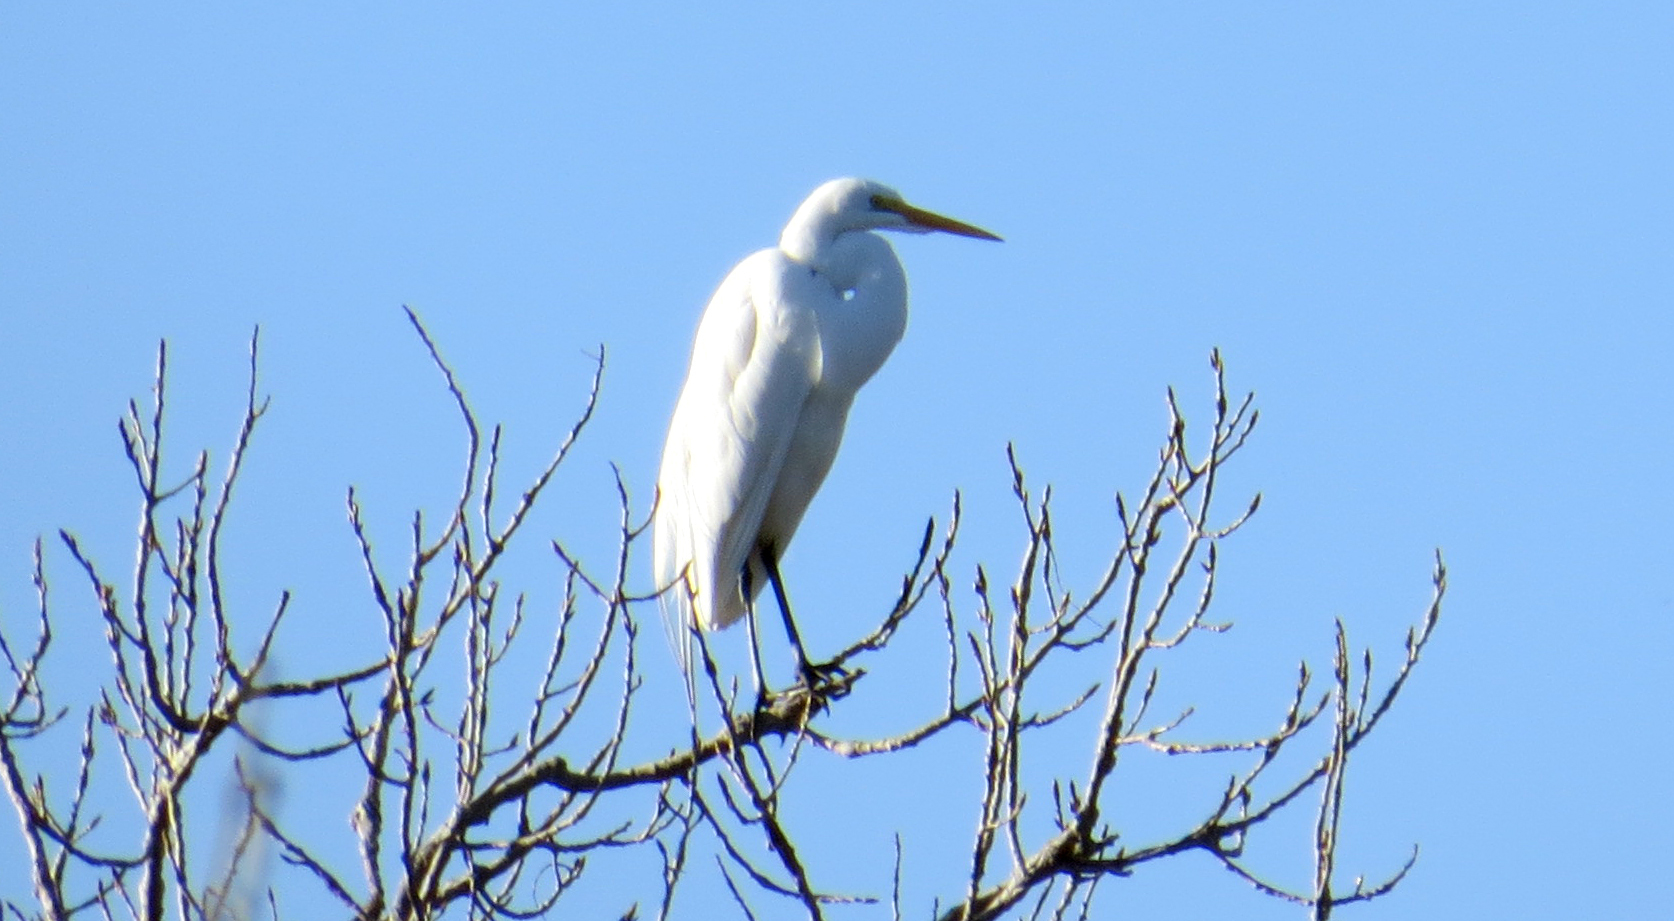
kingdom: Animalia
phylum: Chordata
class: Aves
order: Pelecaniformes
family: Ardeidae
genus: Ardea
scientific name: Ardea alba
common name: Great egret
